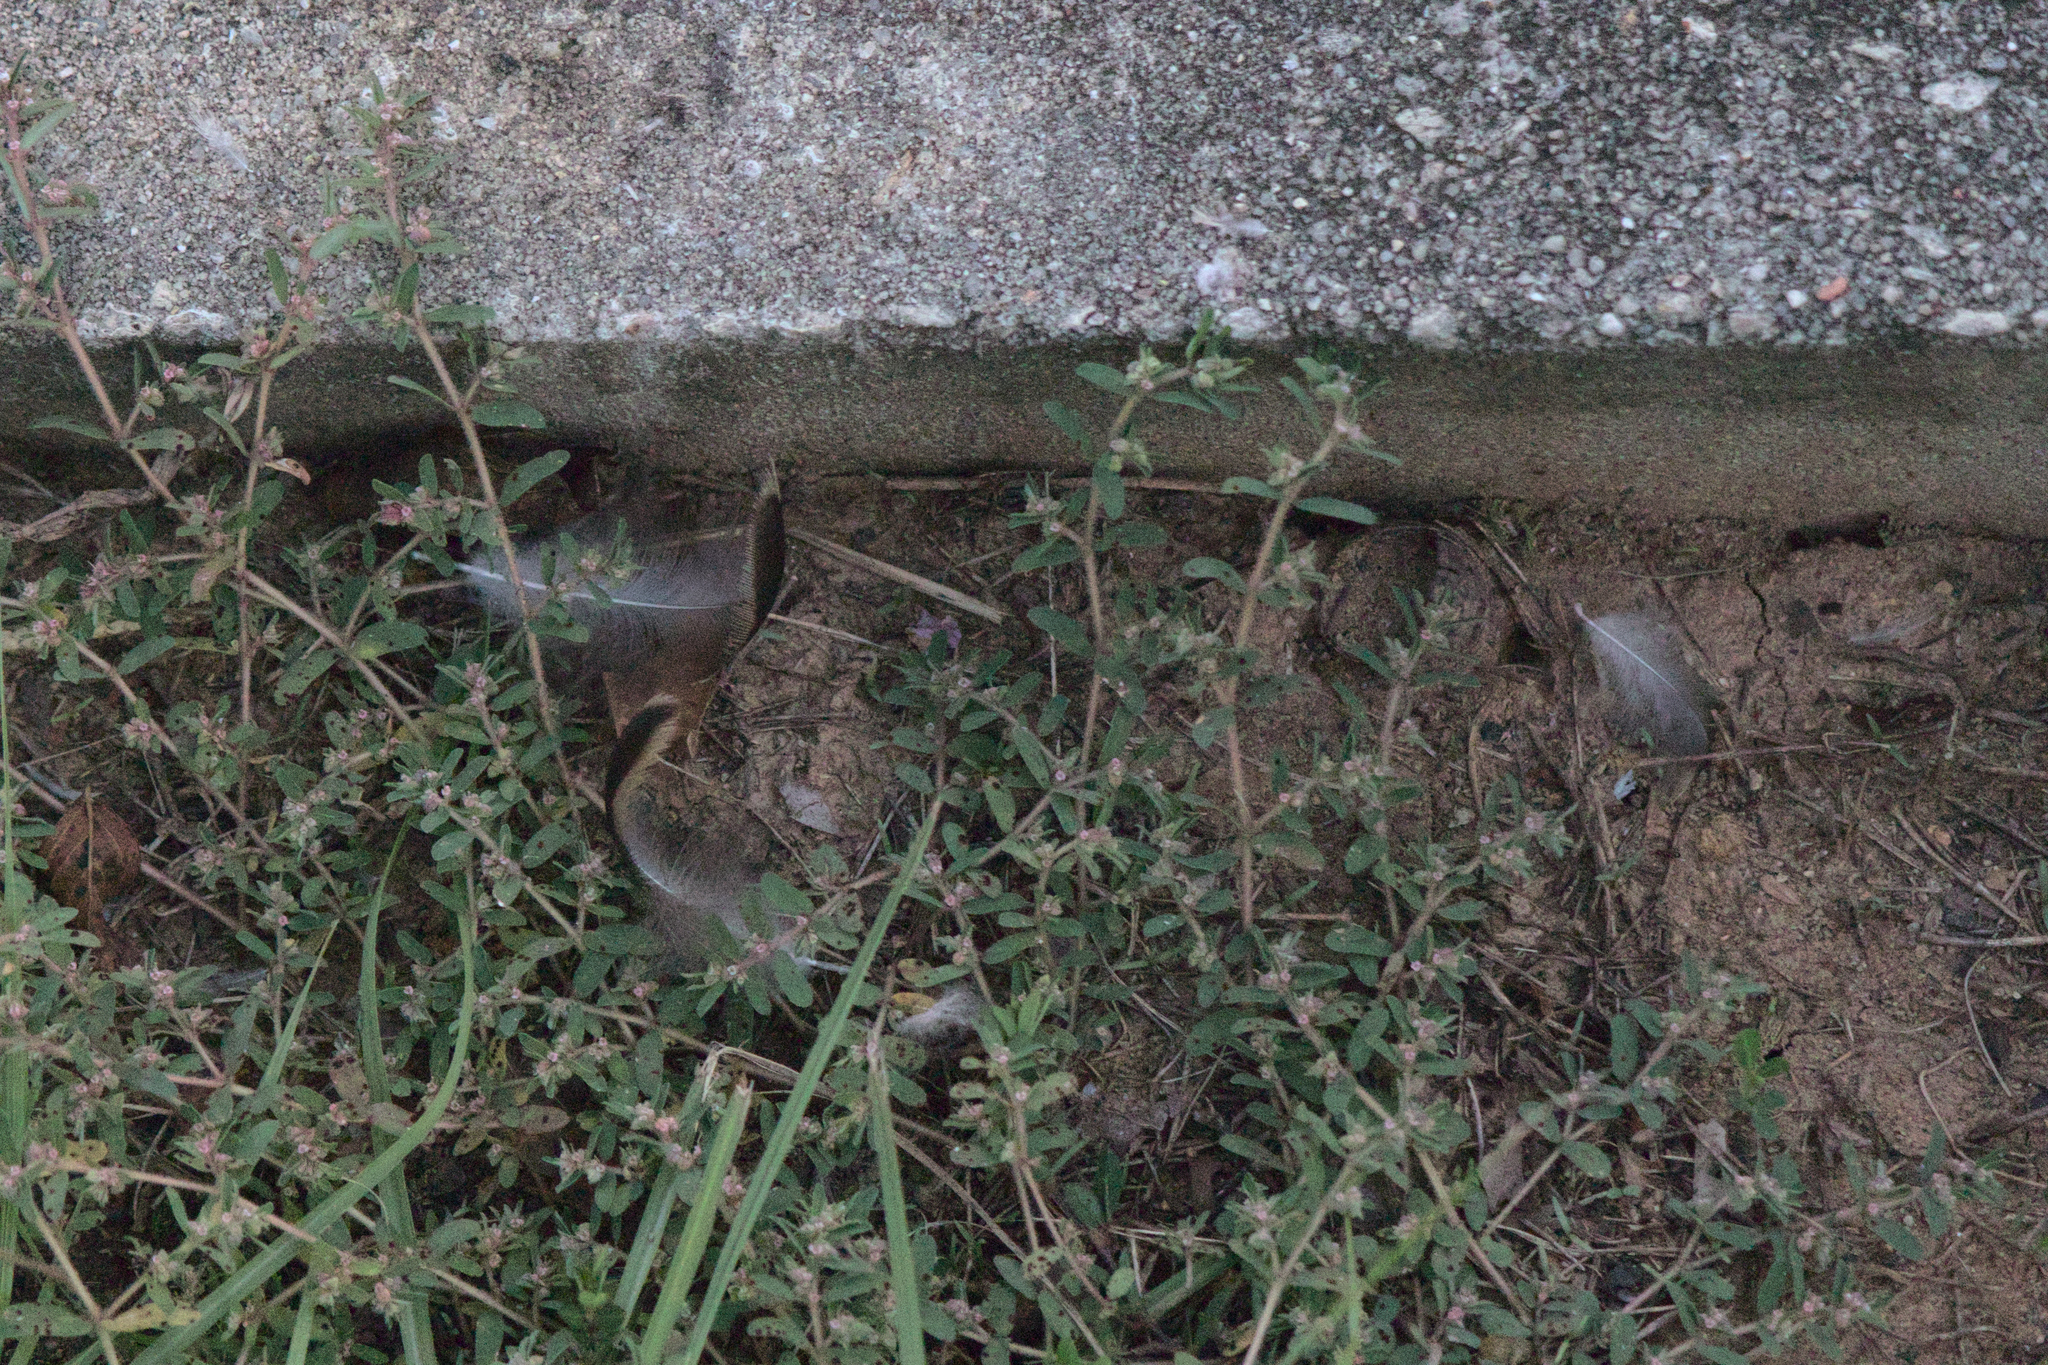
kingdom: Animalia
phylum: Chordata
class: Aves
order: Anseriformes
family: Anatidae
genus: Anas
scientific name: Anas platyrhynchos
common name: Mallard
